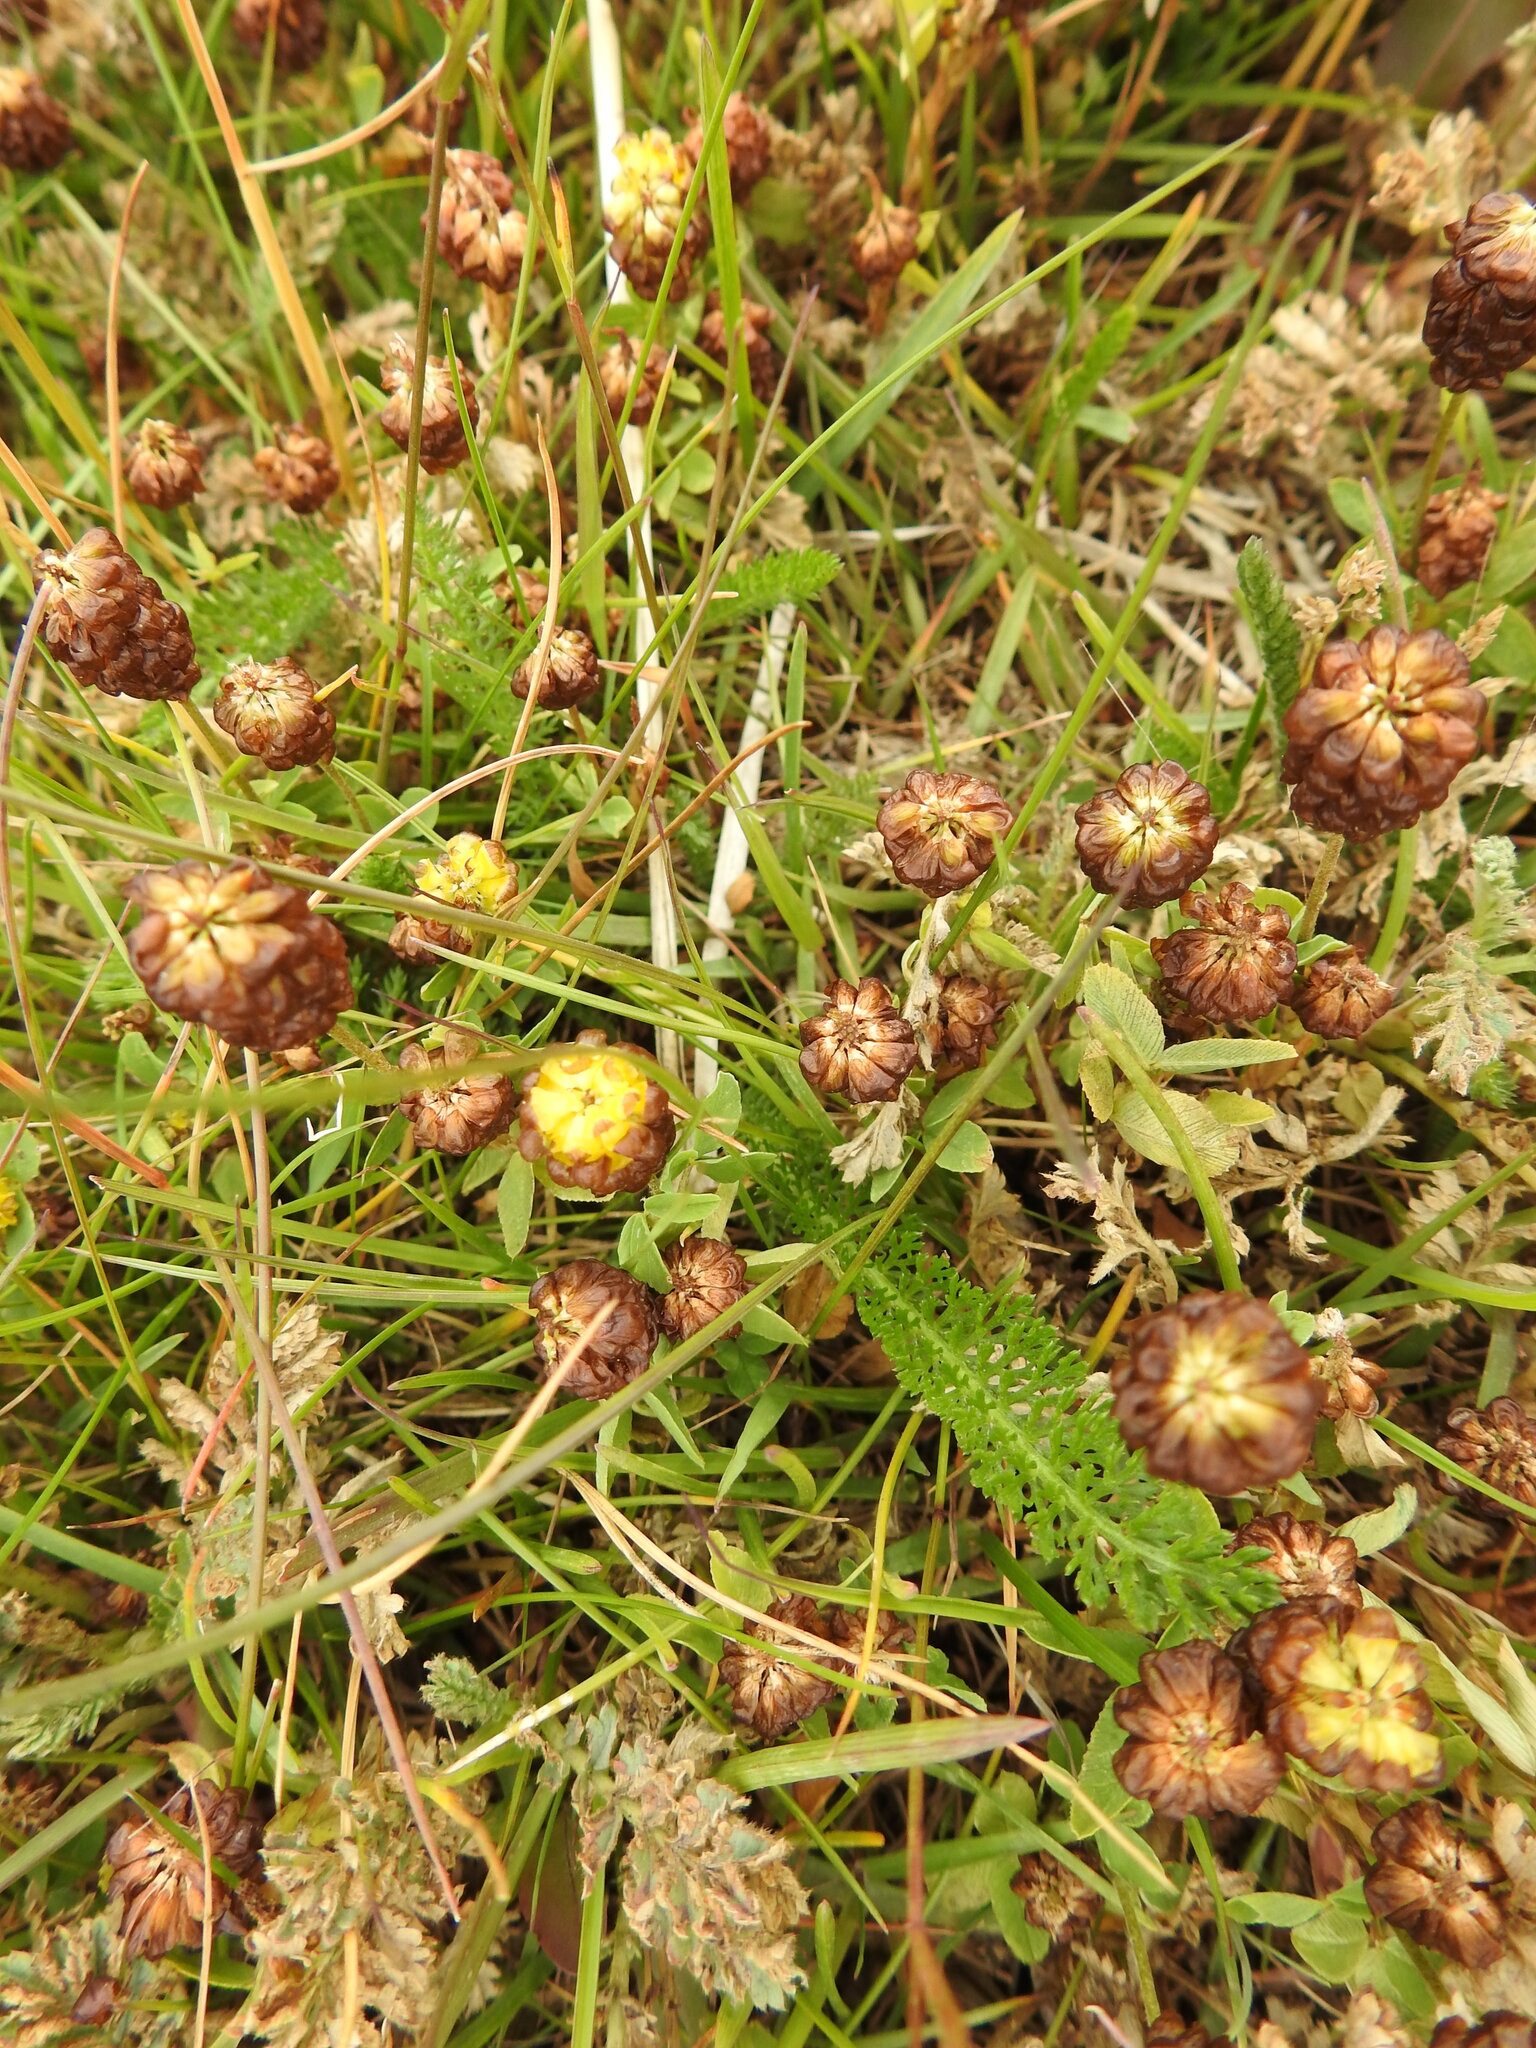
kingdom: Plantae
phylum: Tracheophyta
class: Magnoliopsida
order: Fabales
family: Fabaceae
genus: Trifolium
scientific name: Trifolium spadiceum
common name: Brown moor clover
